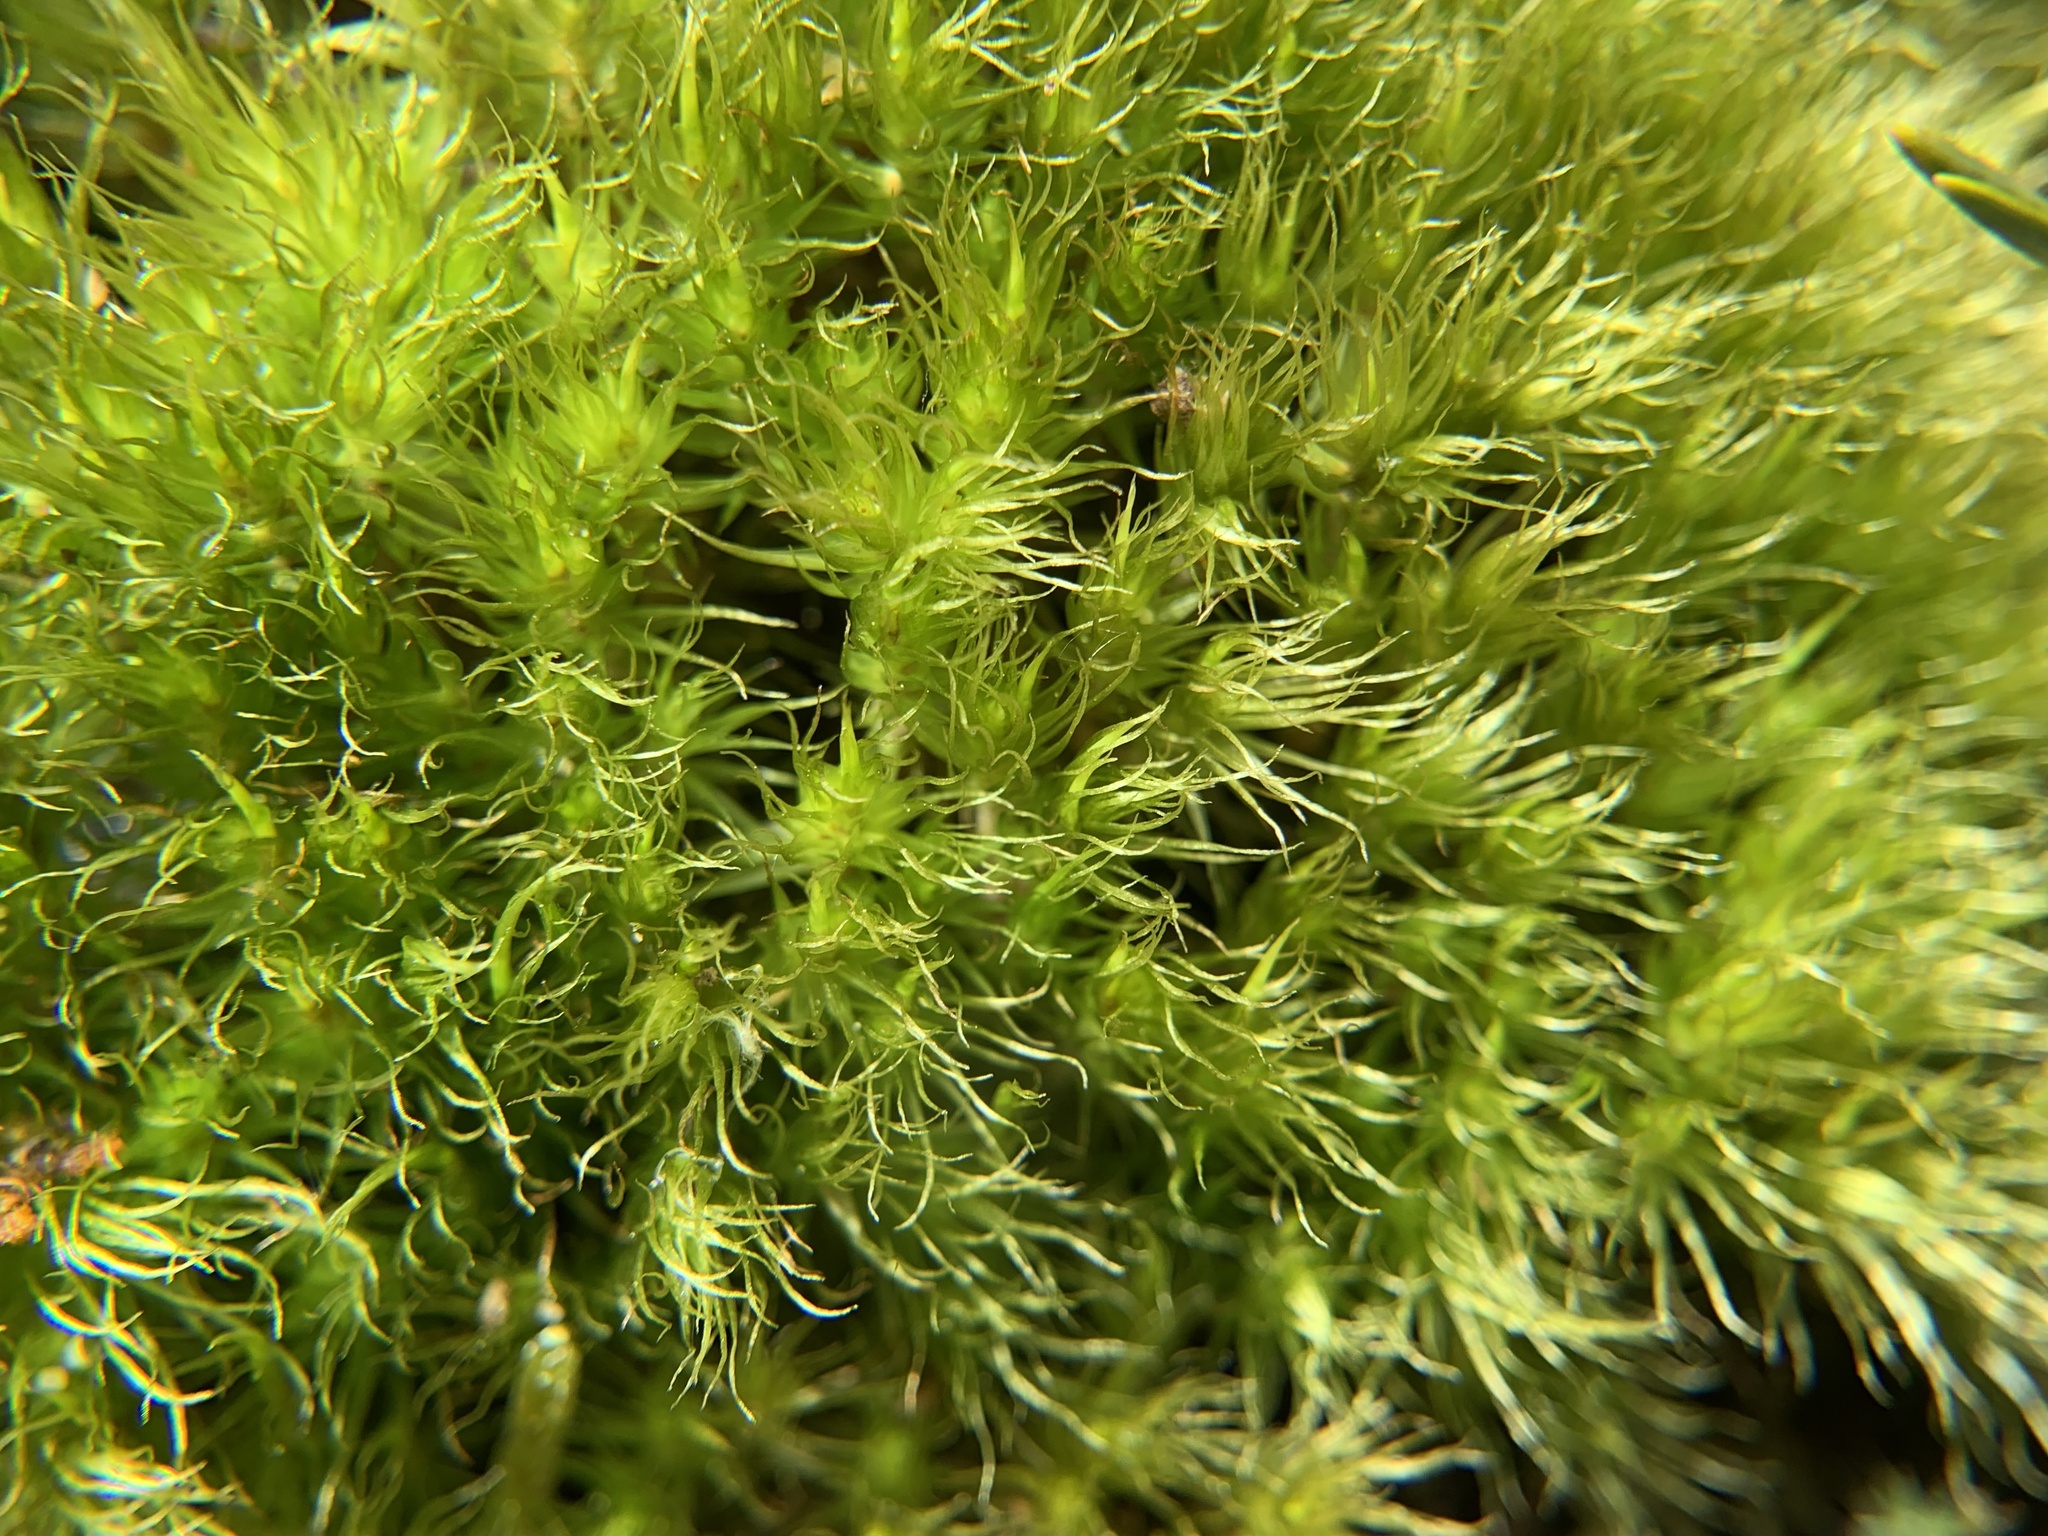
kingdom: Plantae
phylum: Bryophyta
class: Bryopsida
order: Dicranales
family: Dicranaceae
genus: Dicranum
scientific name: Dicranum scoparium
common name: Broom fork-moss
